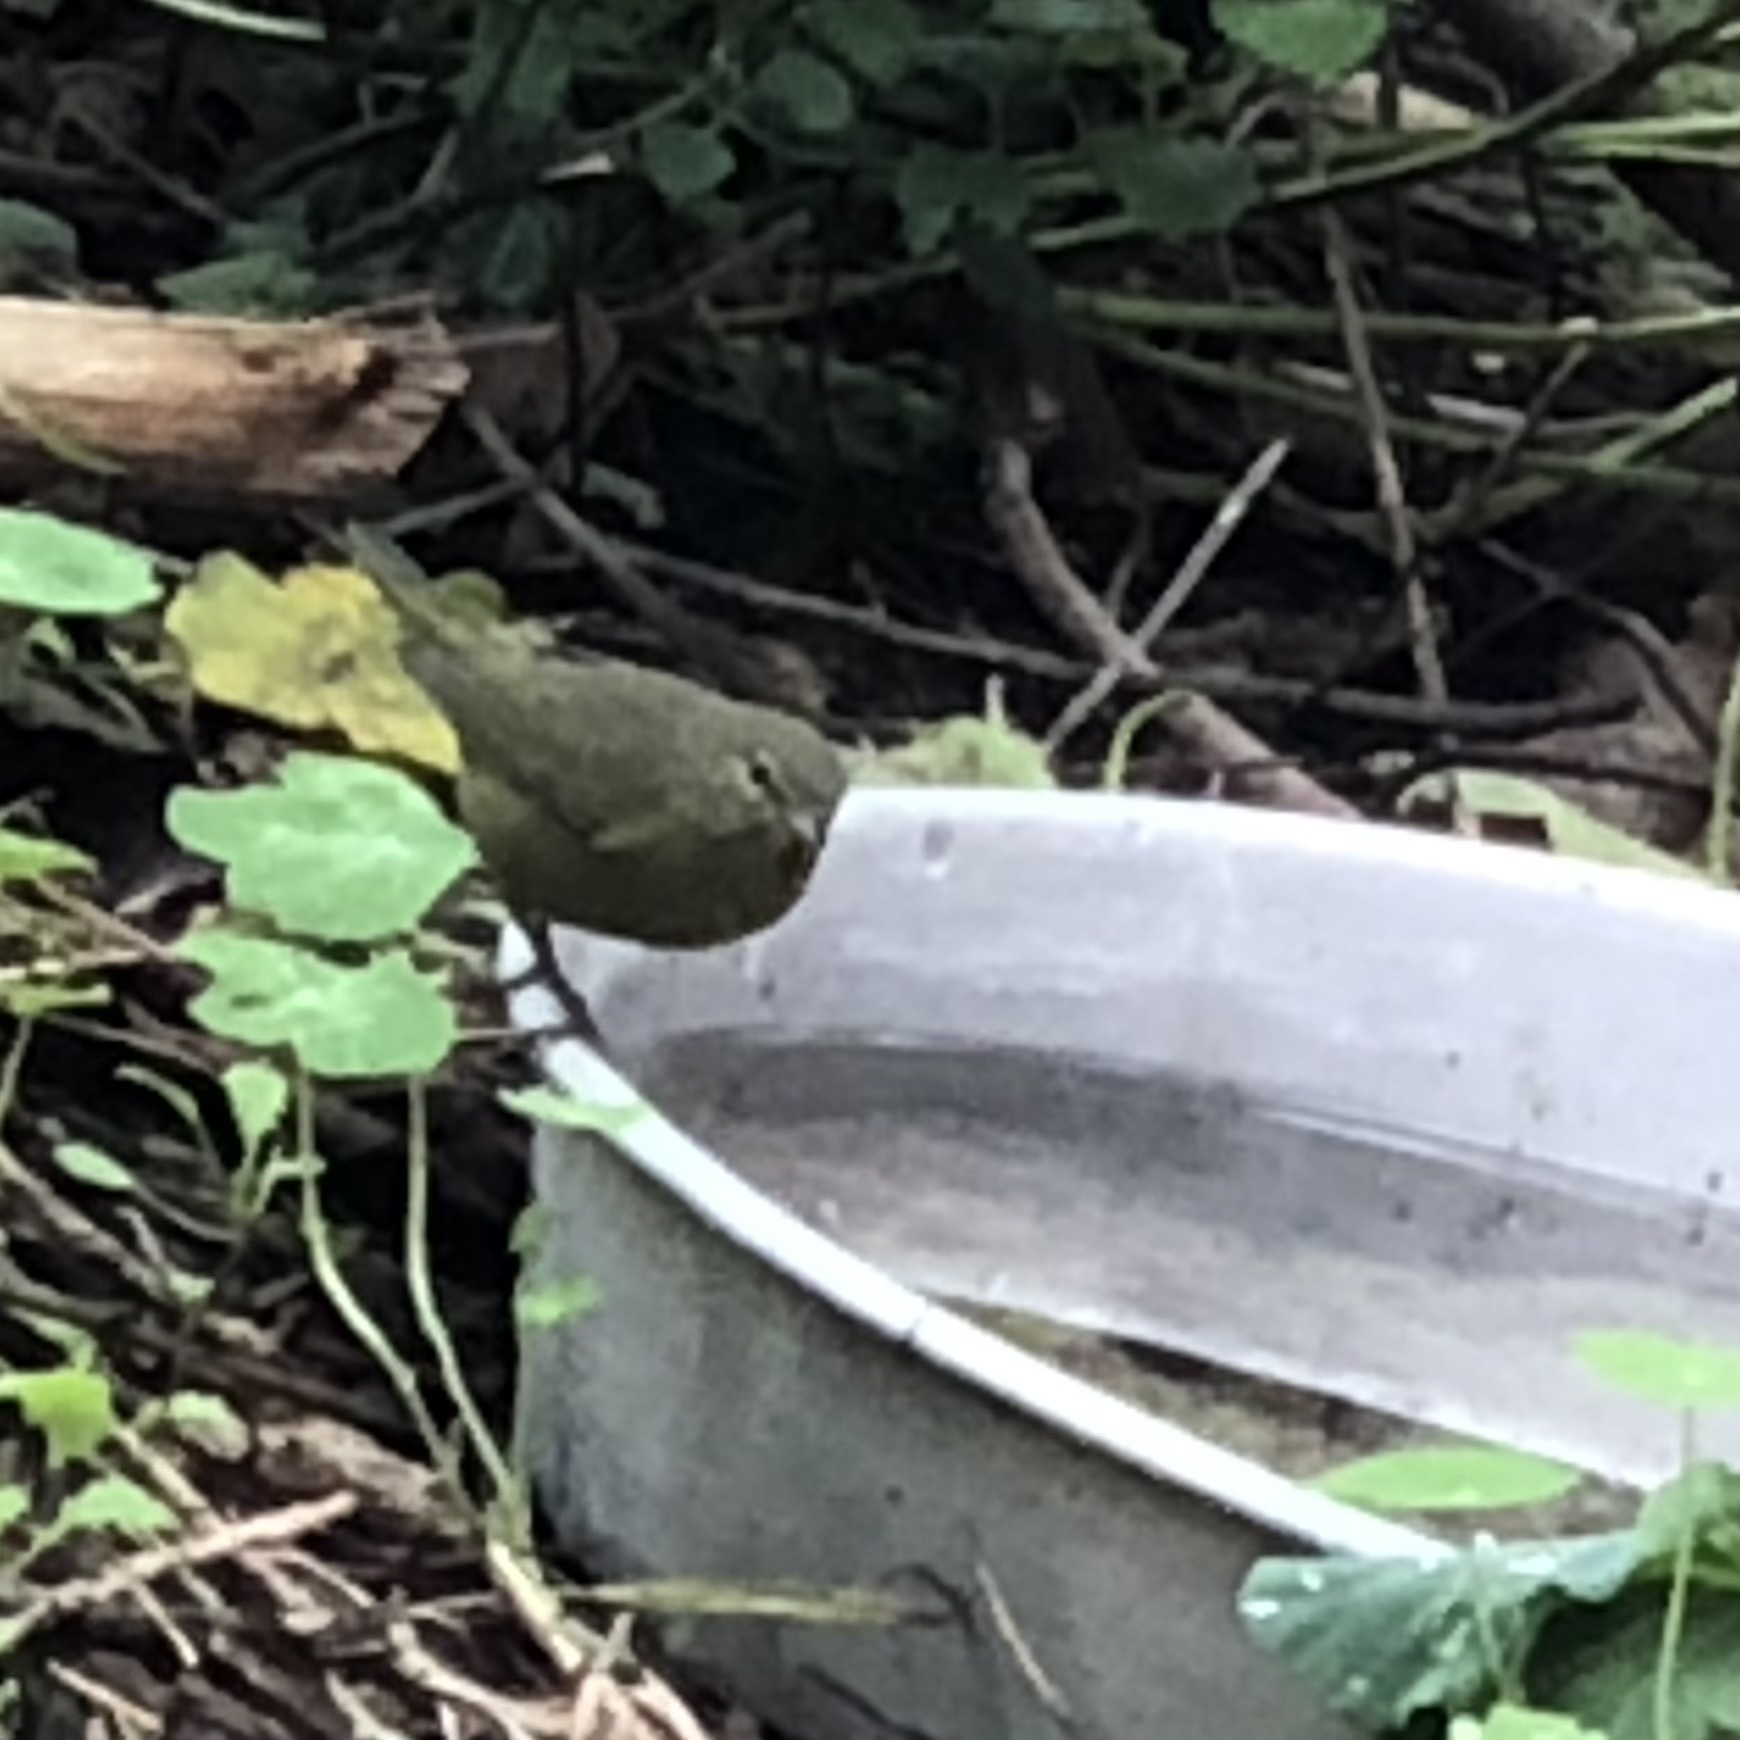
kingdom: Animalia
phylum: Chordata
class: Aves
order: Passeriformes
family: Parulidae
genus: Leiothlypis
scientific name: Leiothlypis celata
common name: Orange-crowned warbler
